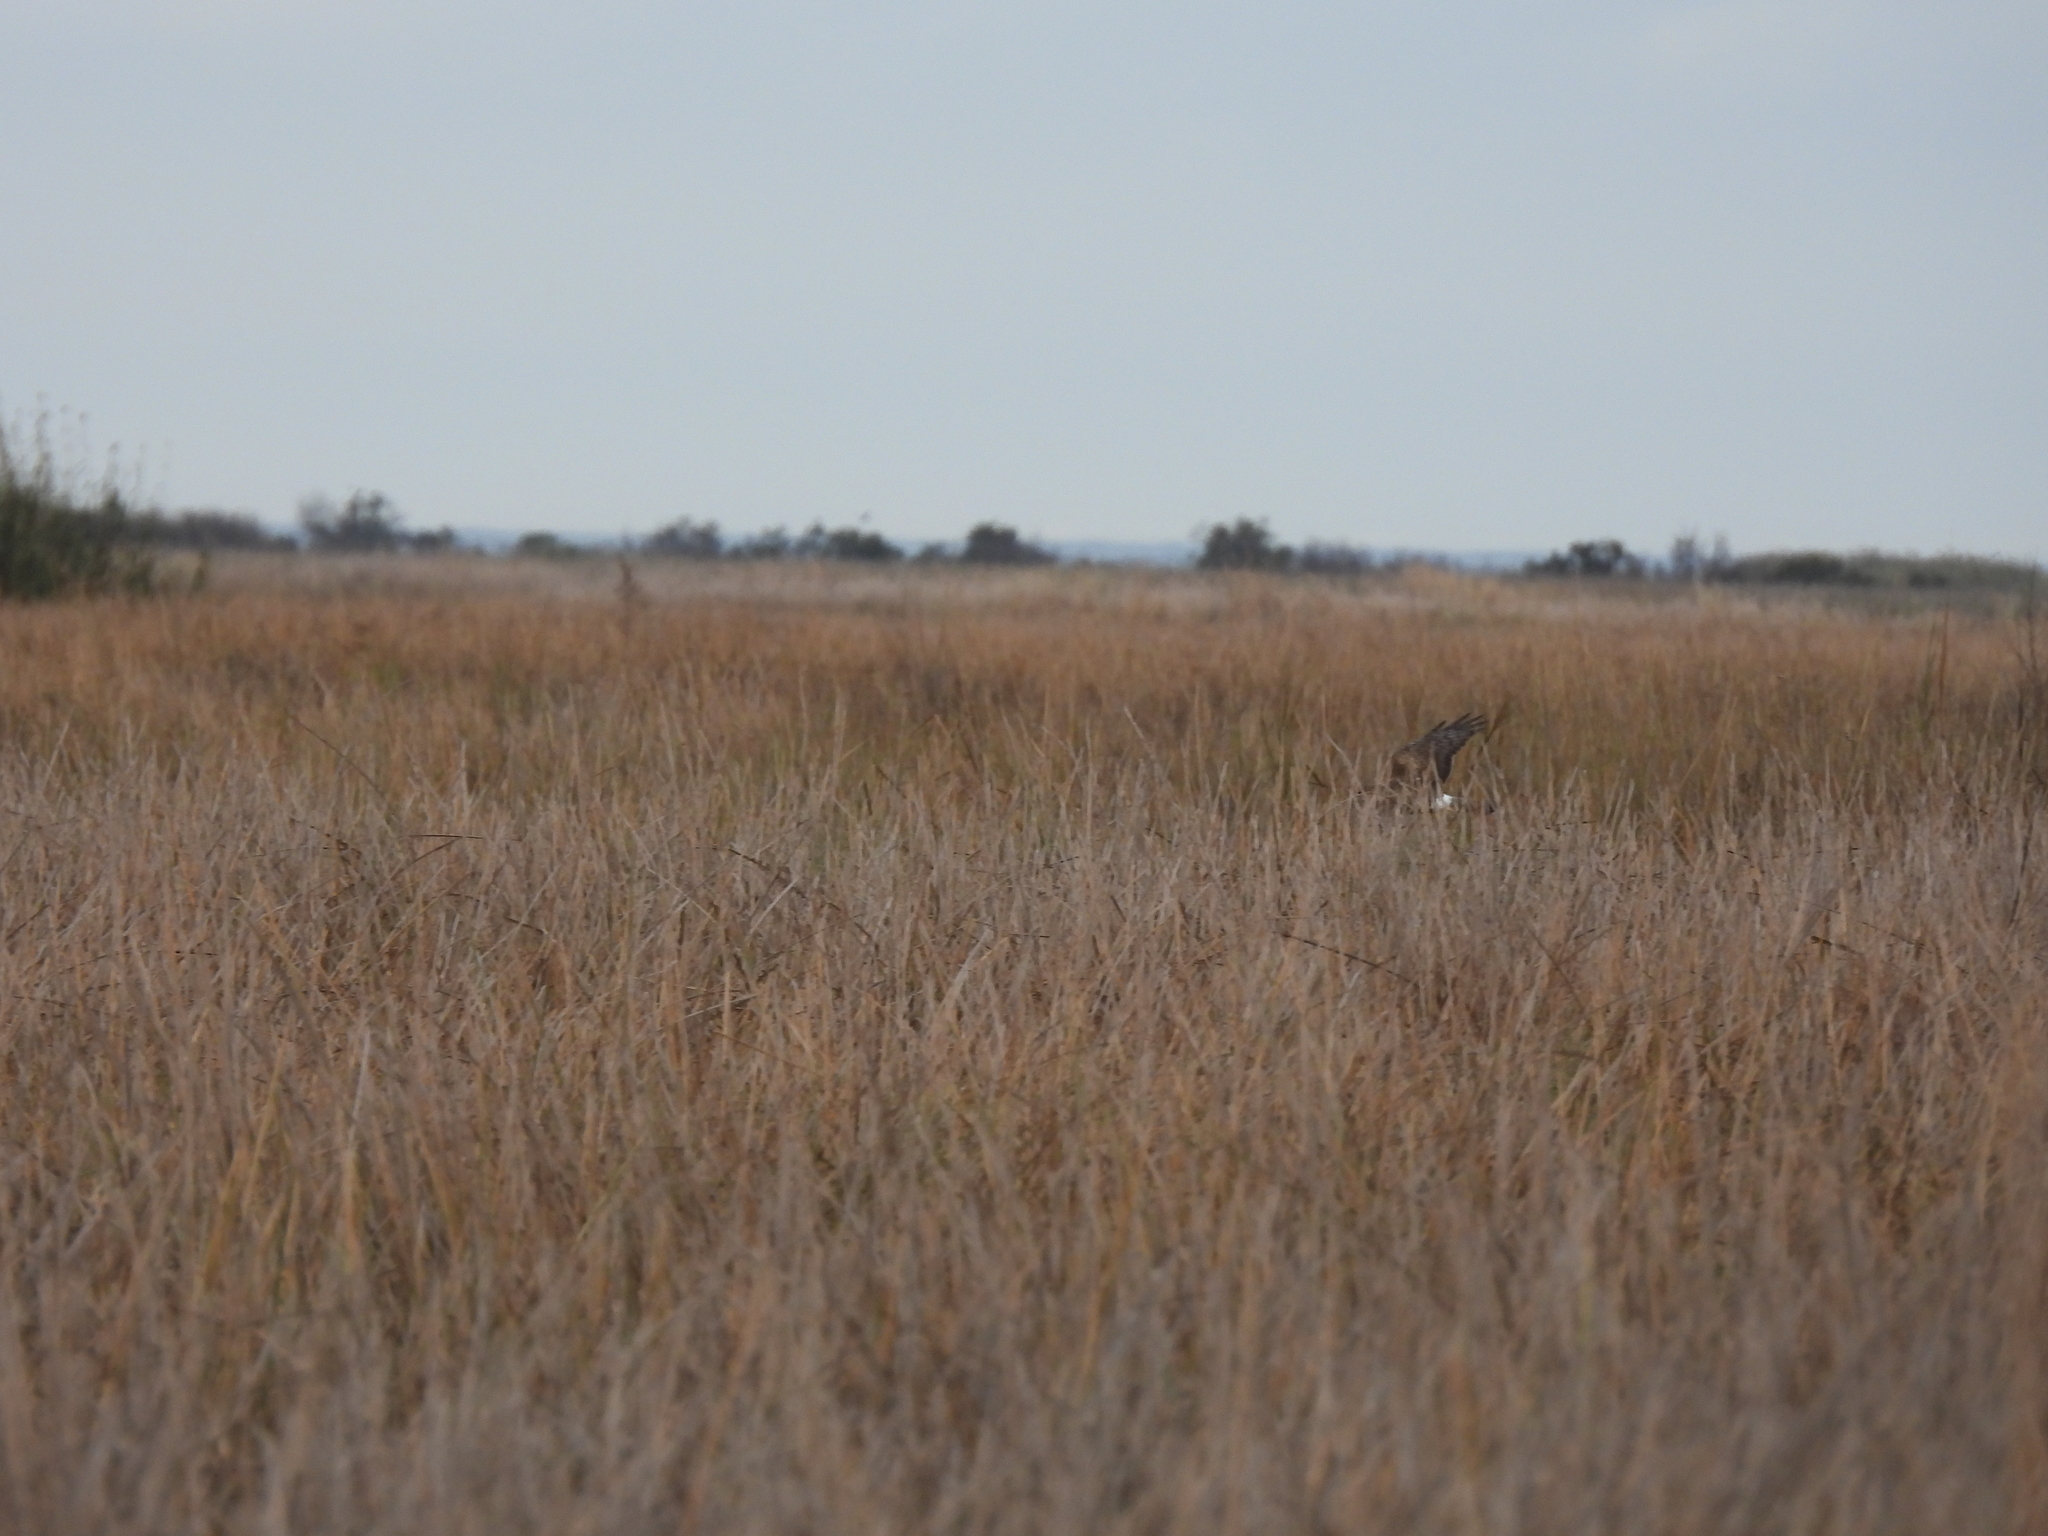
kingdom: Animalia
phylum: Chordata
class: Aves
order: Accipitriformes
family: Accipitridae
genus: Circus
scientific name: Circus cyaneus
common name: Hen harrier
